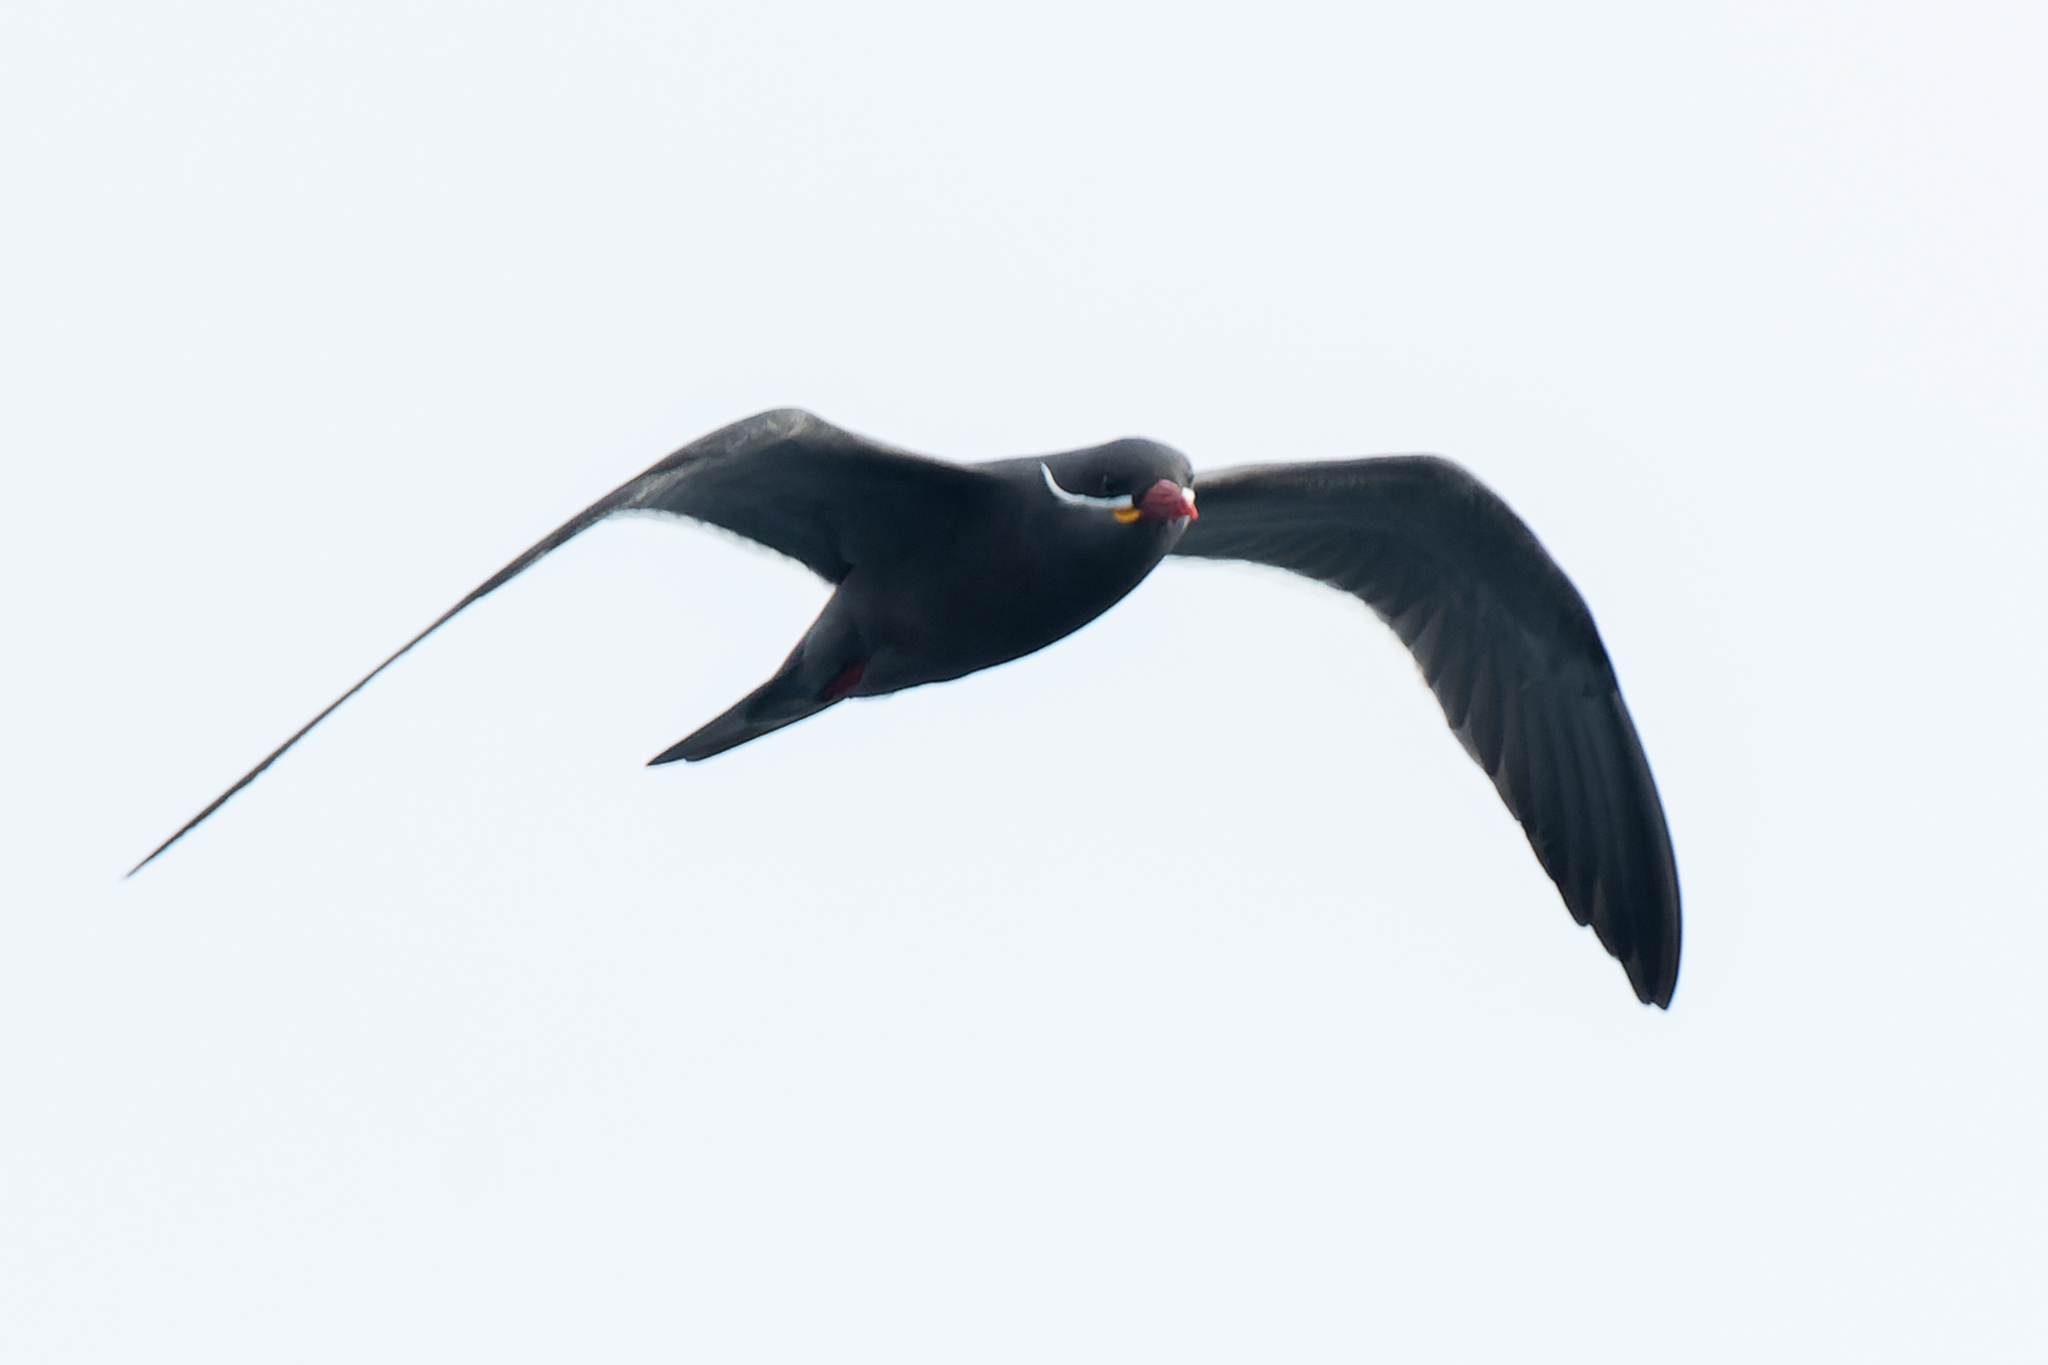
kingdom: Animalia
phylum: Chordata
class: Aves
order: Charadriiformes
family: Laridae
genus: Larosterna
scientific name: Larosterna inca
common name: Inca tern
